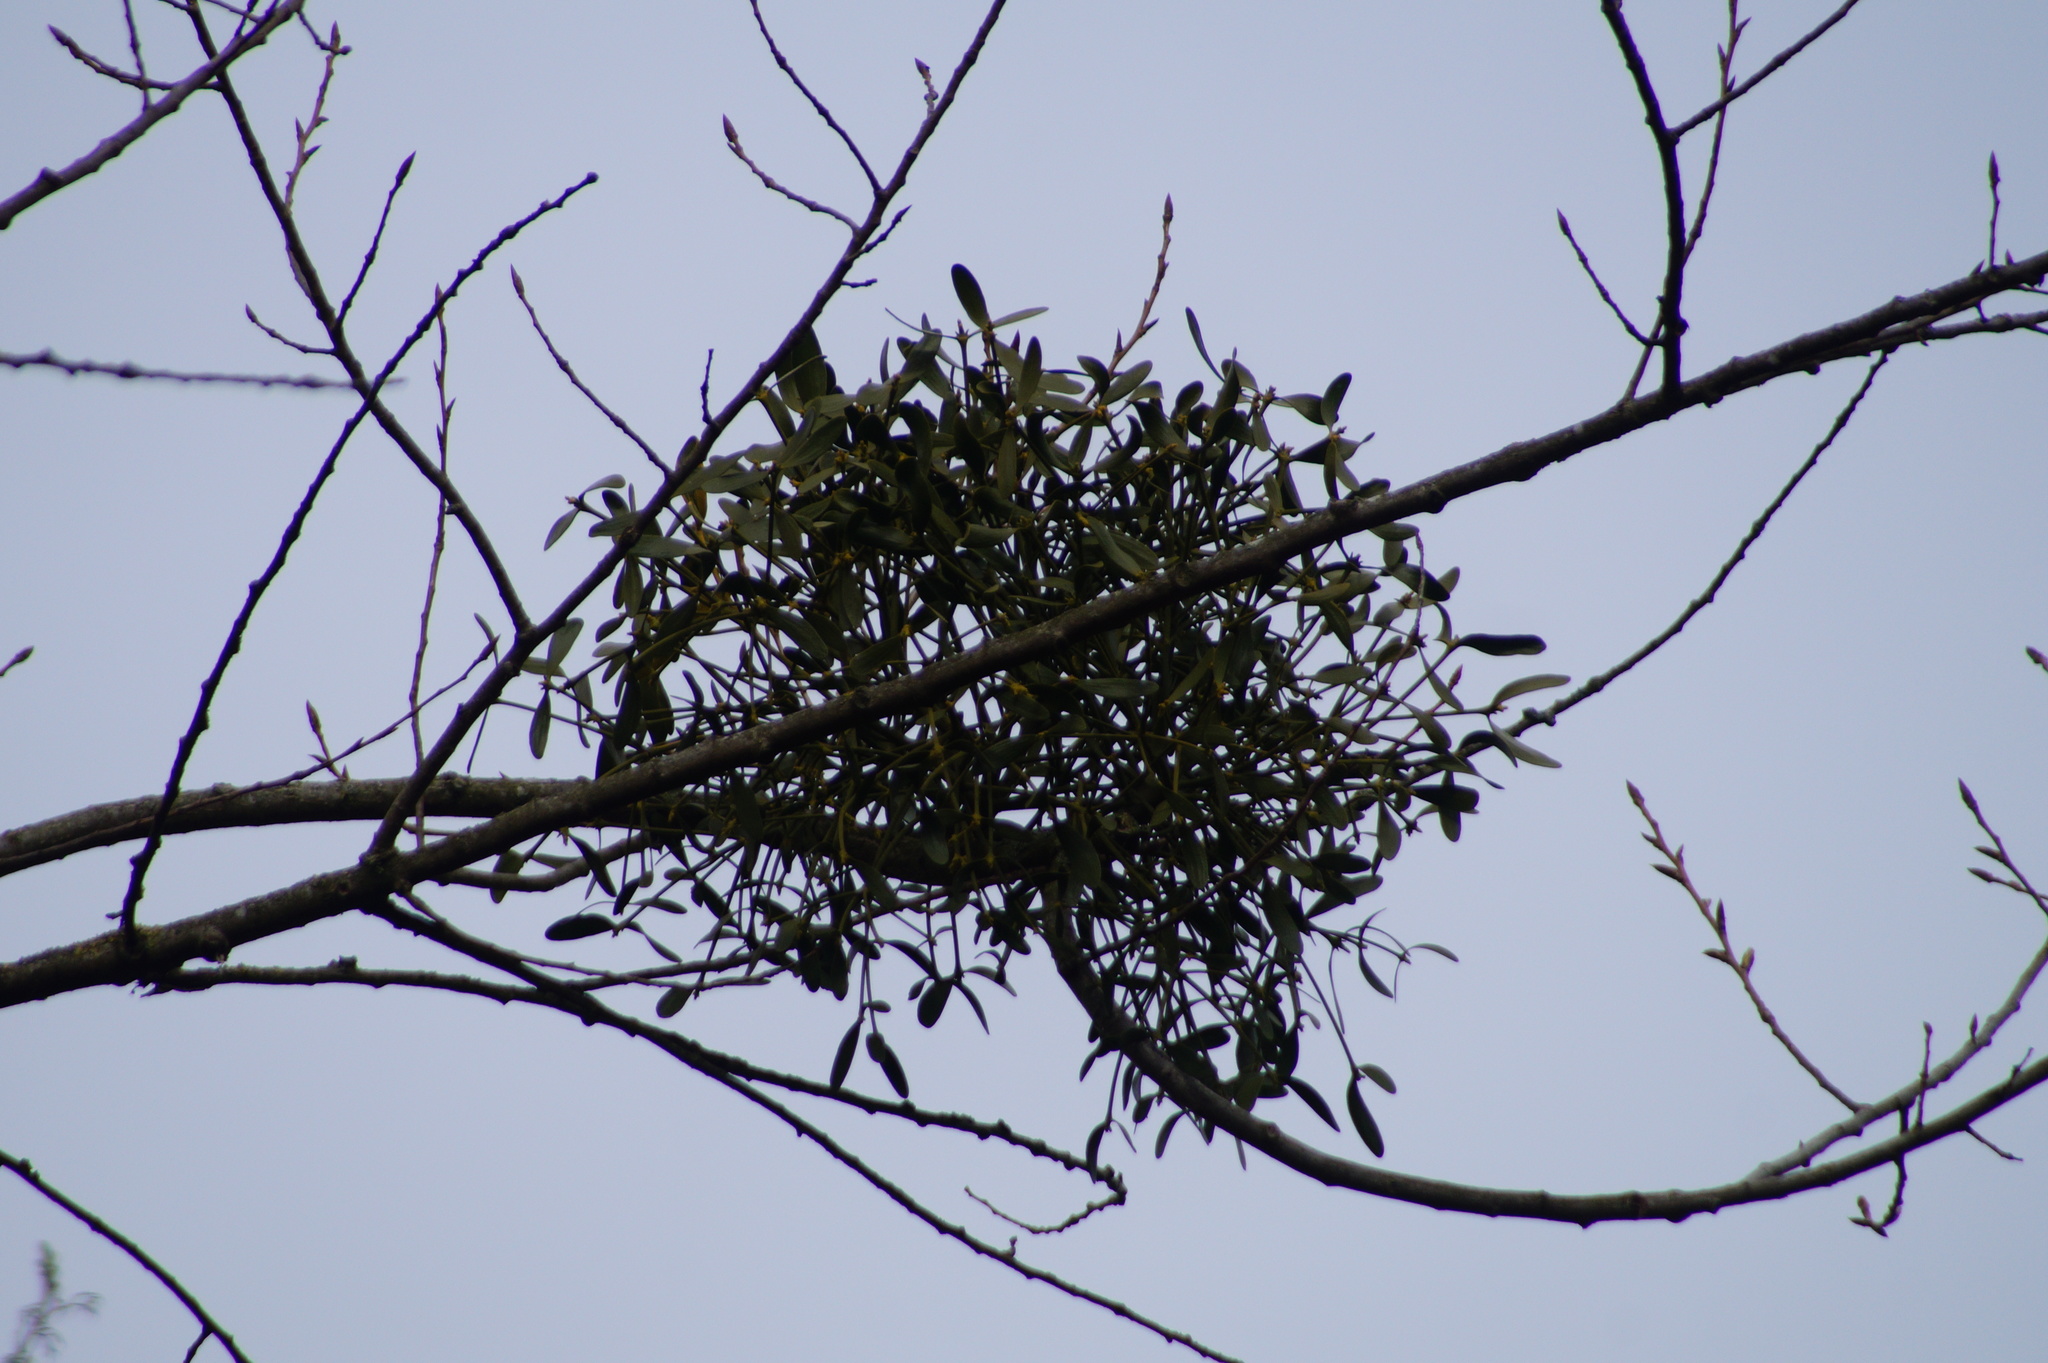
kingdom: Plantae
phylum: Tracheophyta
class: Magnoliopsida
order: Santalales
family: Viscaceae
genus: Viscum
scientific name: Viscum album
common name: Mistletoe
